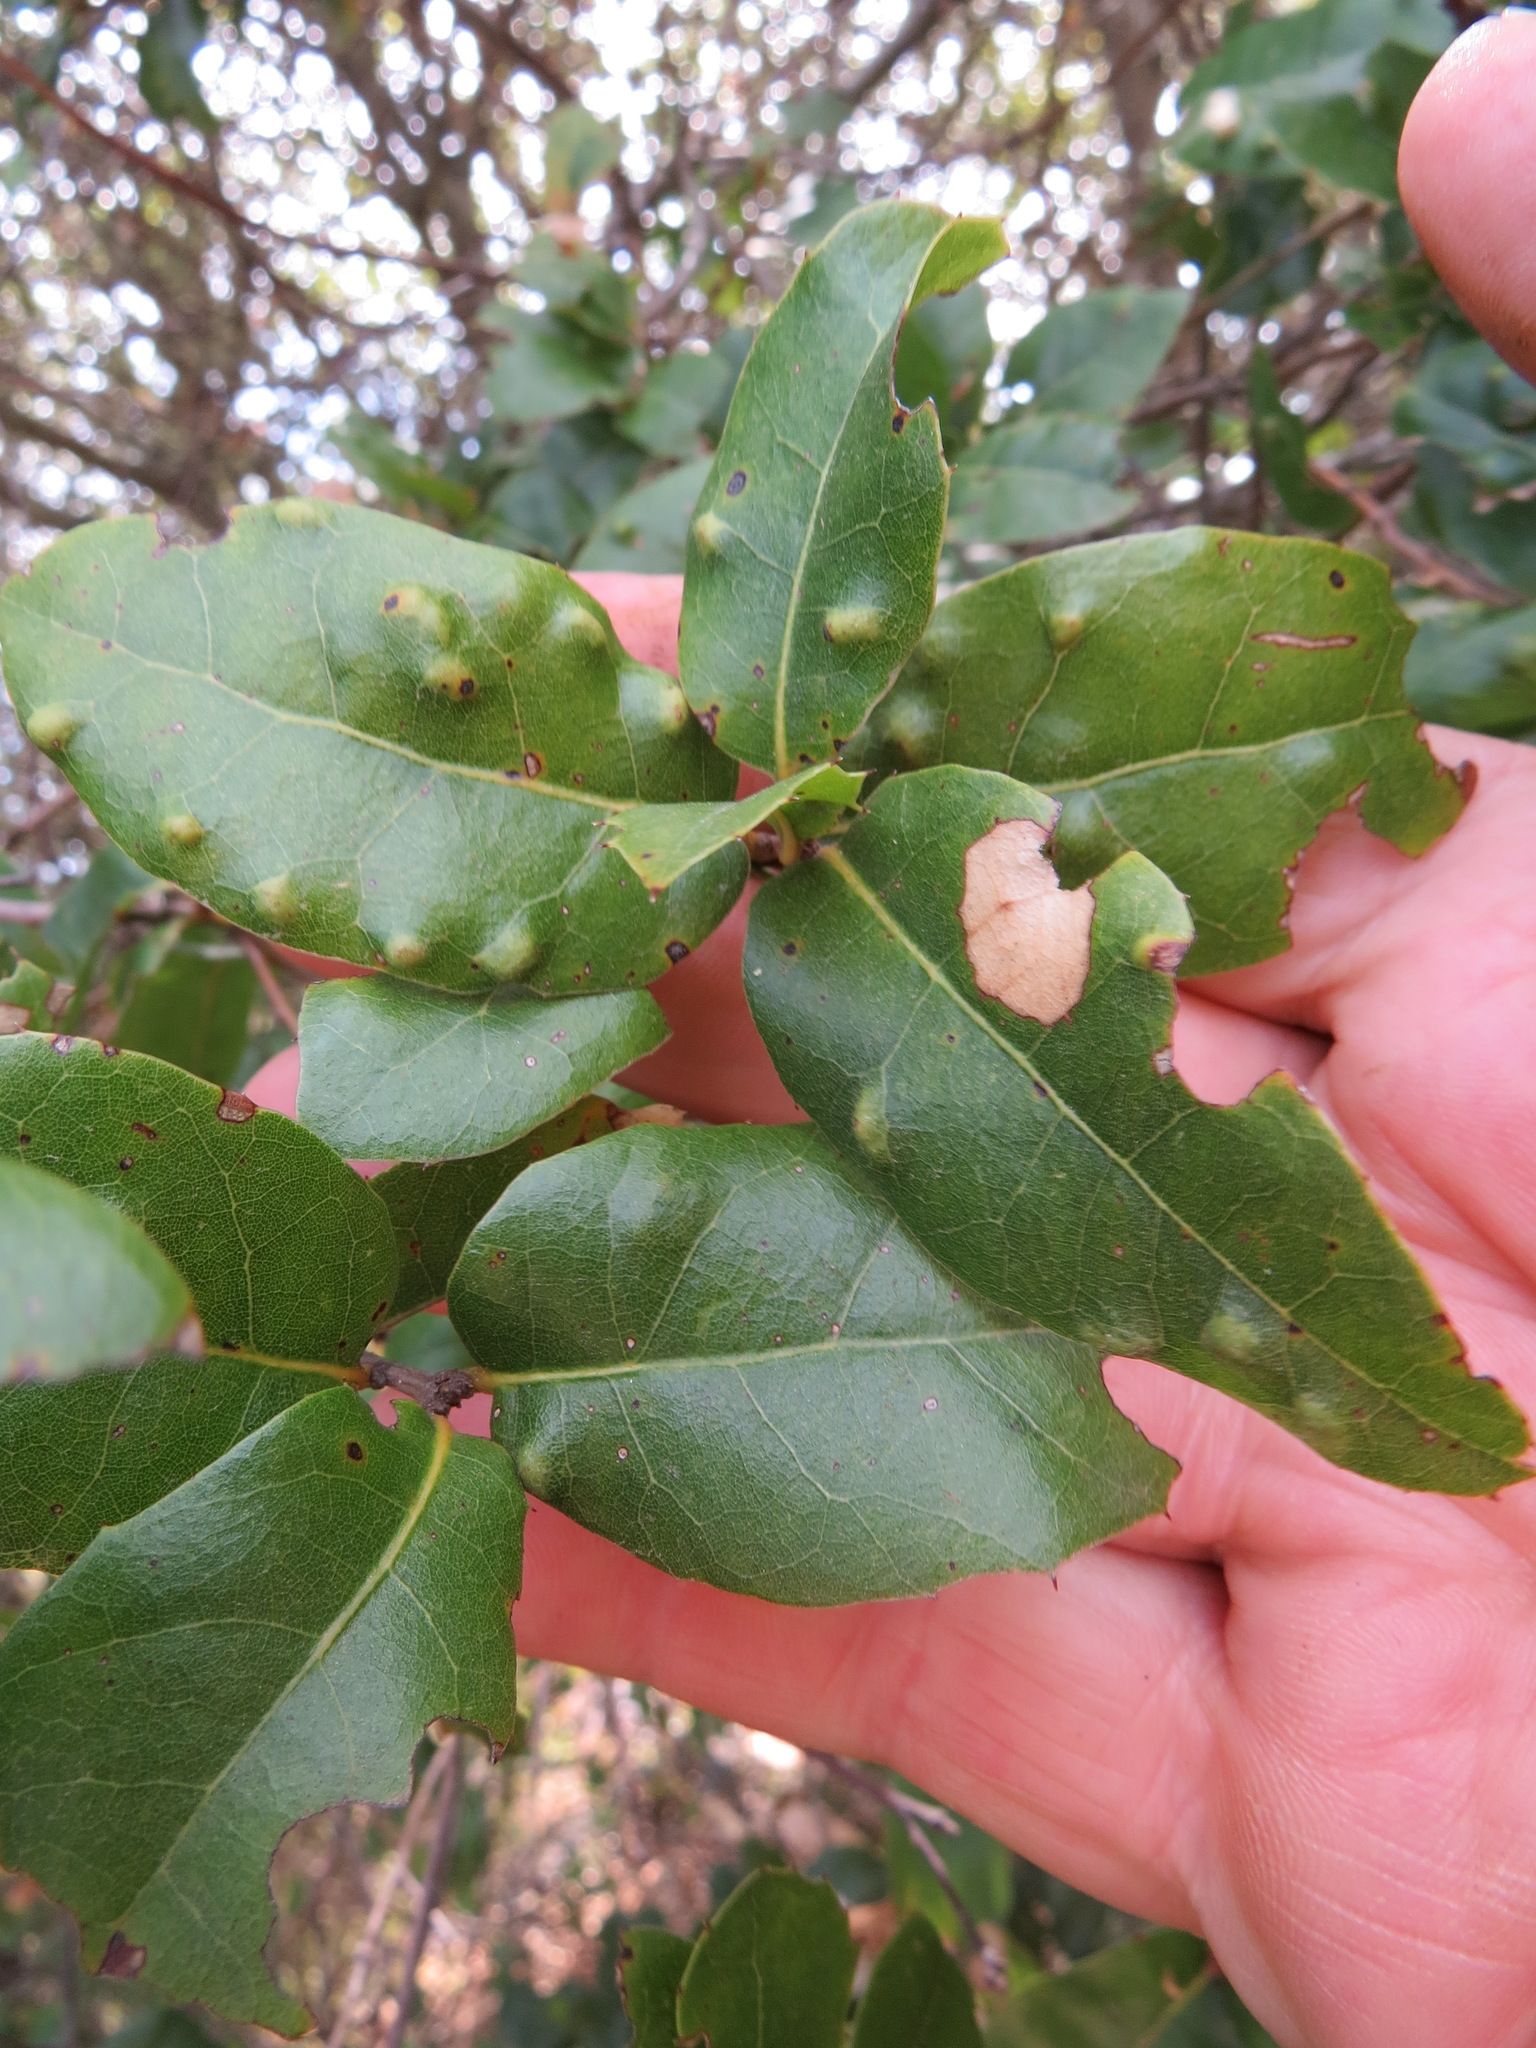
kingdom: Animalia
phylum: Arthropoda
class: Arachnida
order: Trombidiformes
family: Eriophyidae
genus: Aceria
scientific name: Aceria
